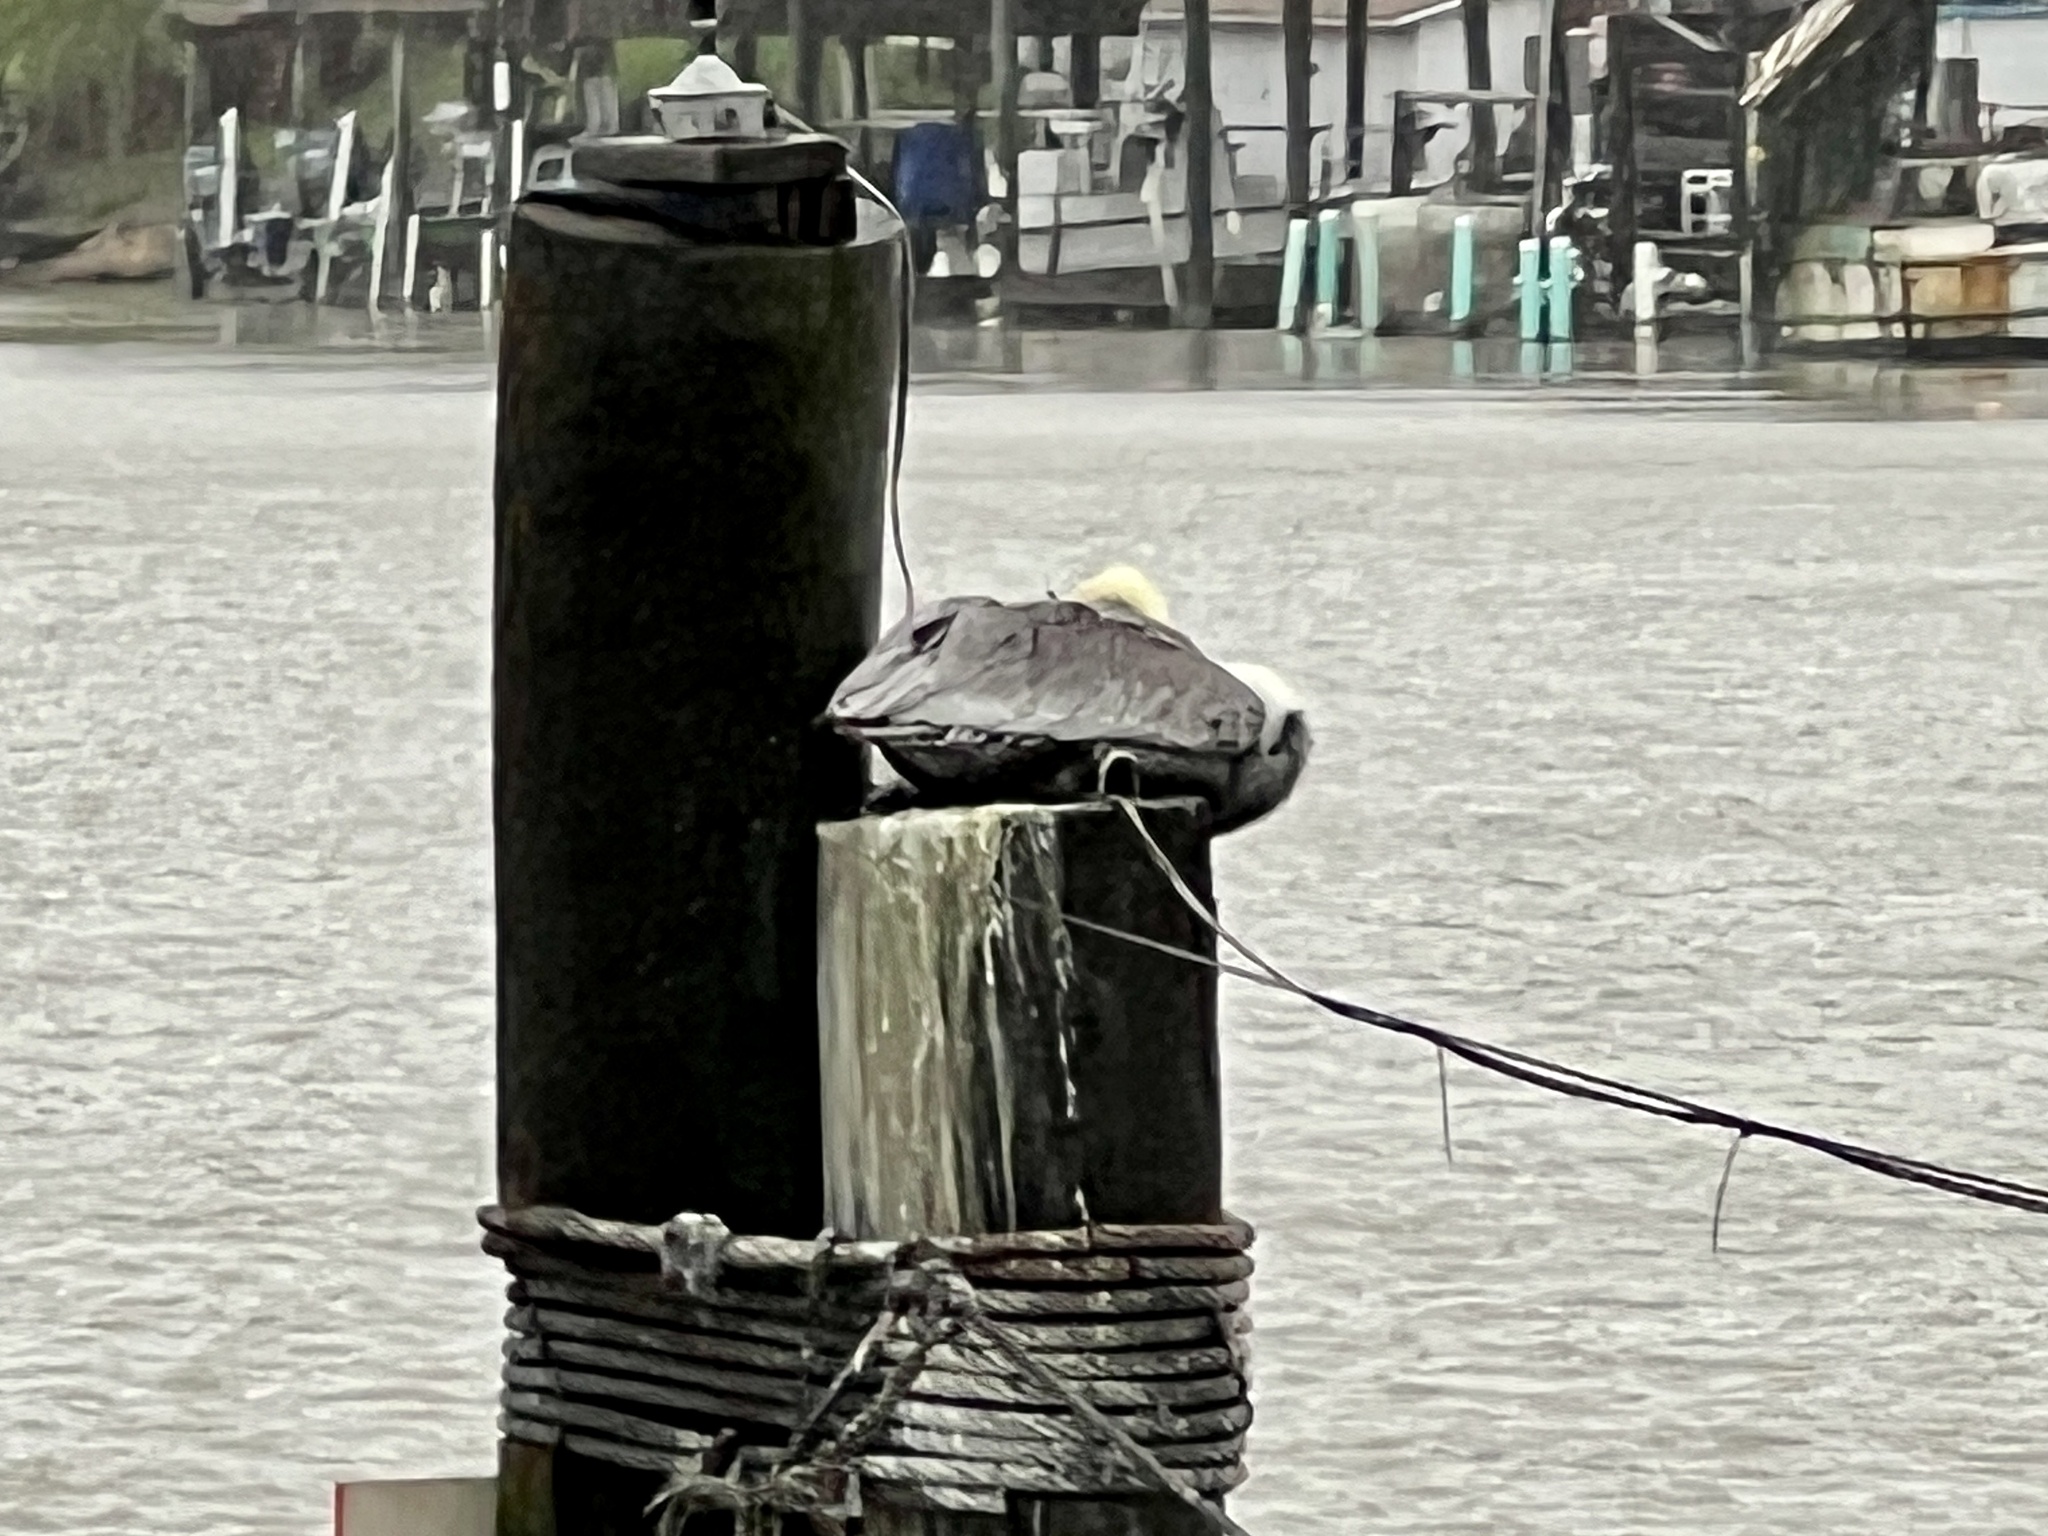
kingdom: Animalia
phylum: Chordata
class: Aves
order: Pelecaniformes
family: Pelecanidae
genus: Pelecanus
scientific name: Pelecanus occidentalis
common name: Brown pelican
